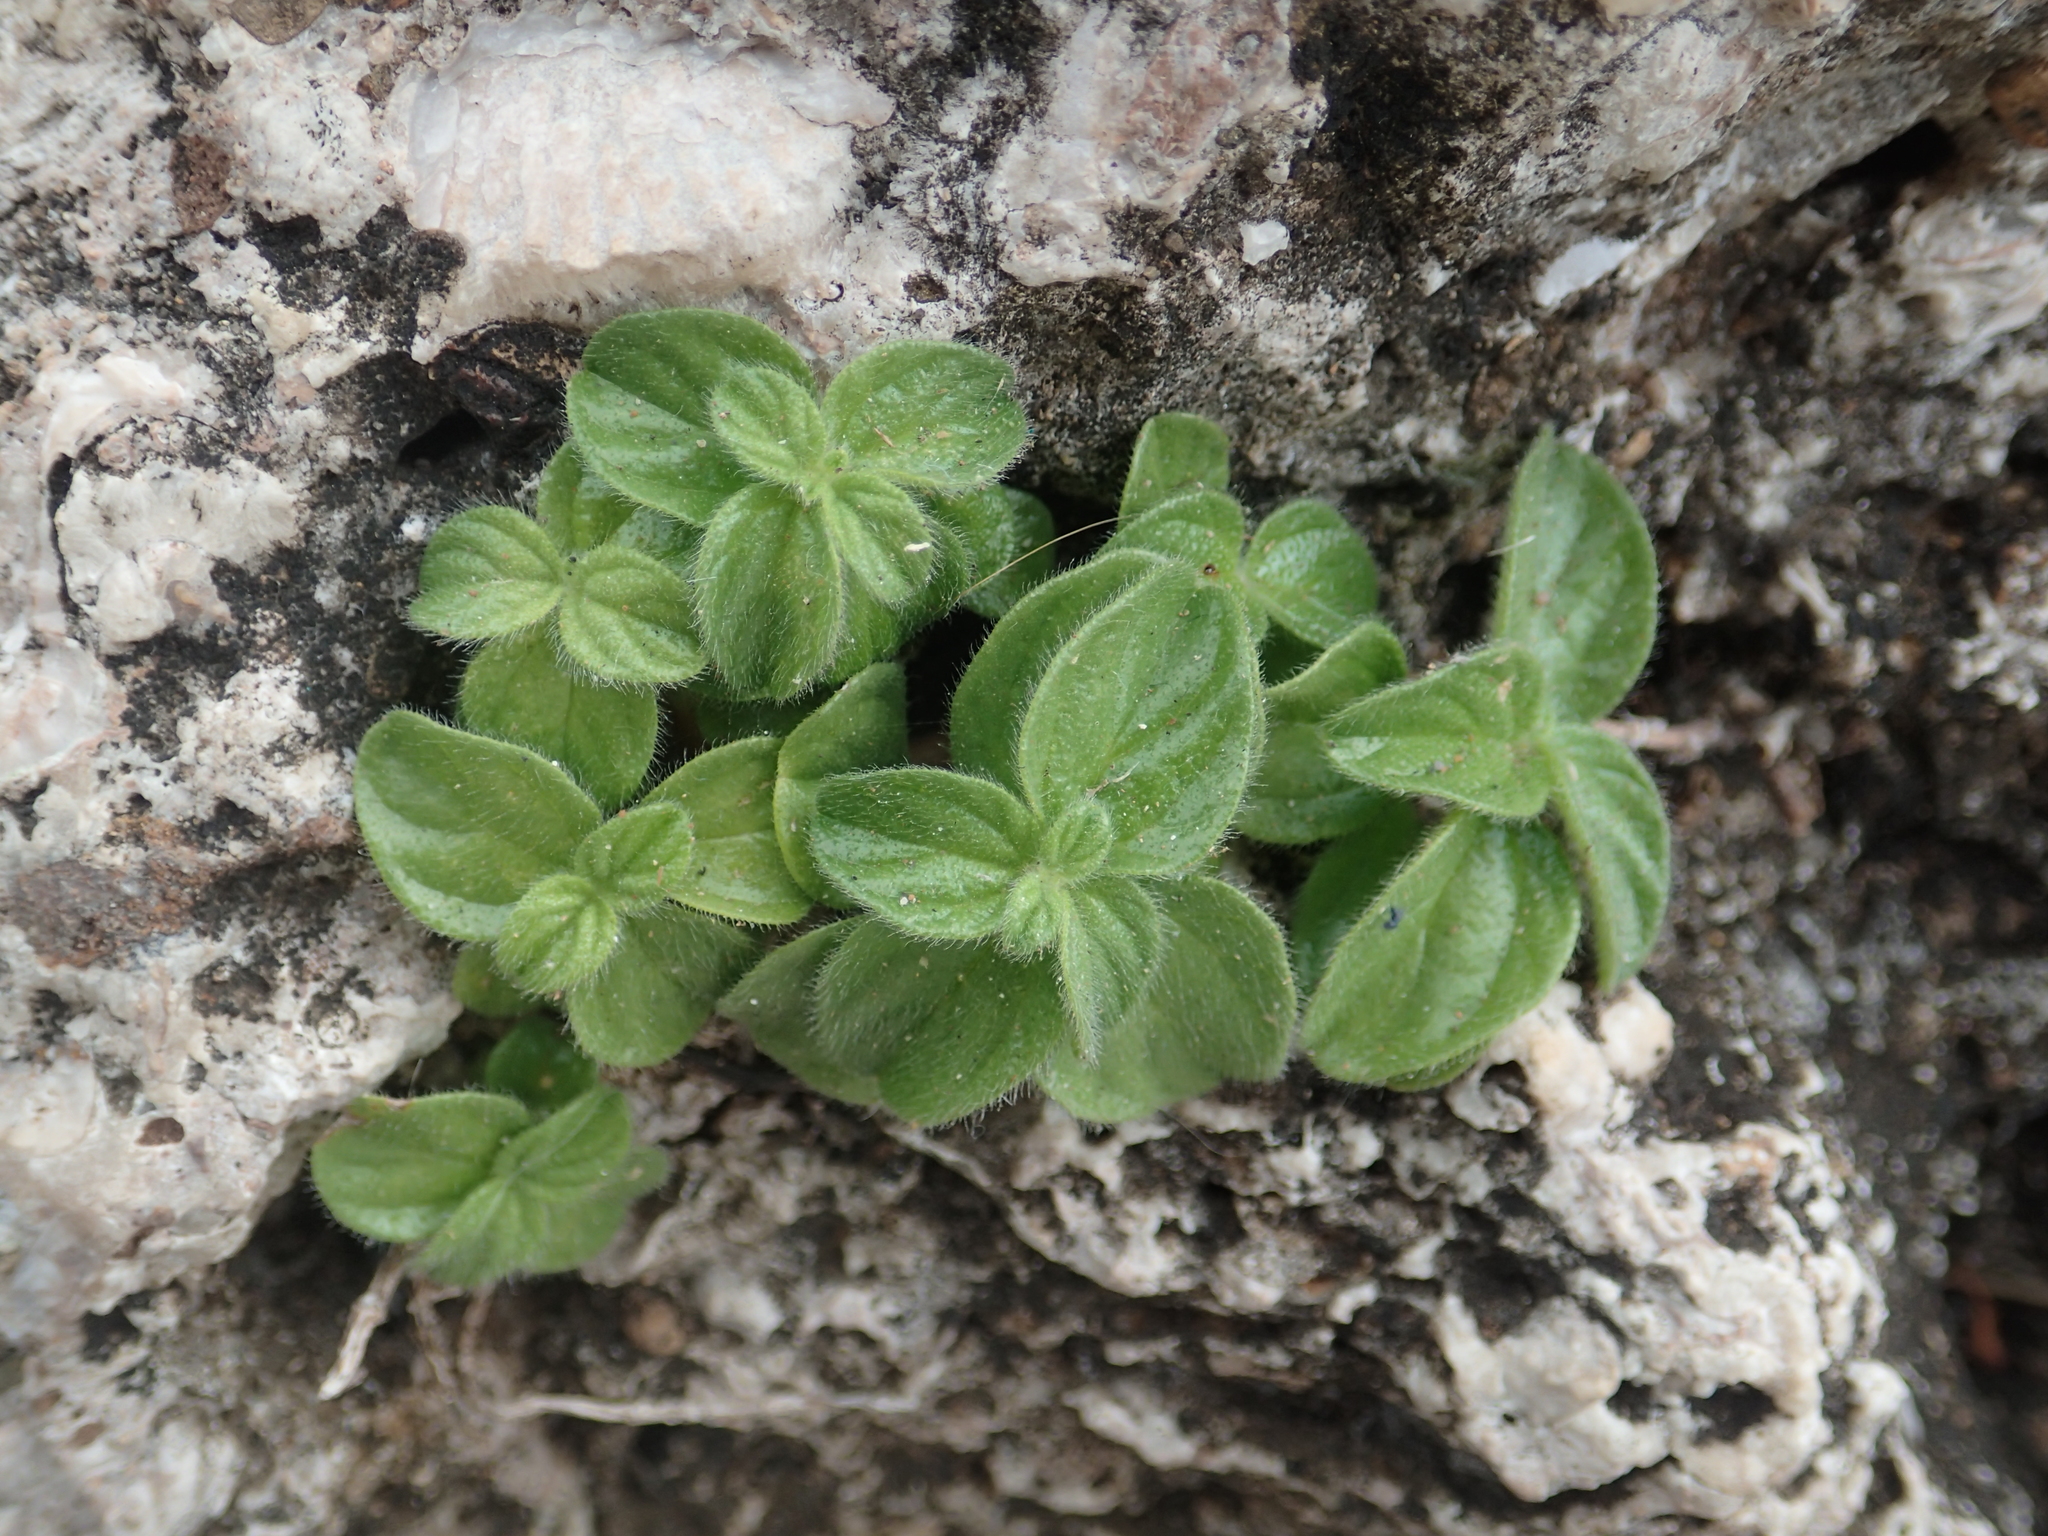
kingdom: Plantae
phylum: Tracheophyta
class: Magnoliopsida
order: Rosales
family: Urticaceae
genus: Pouzolzia
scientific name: Pouzolzia zeylanica
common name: Graceful pouzolzsbush
